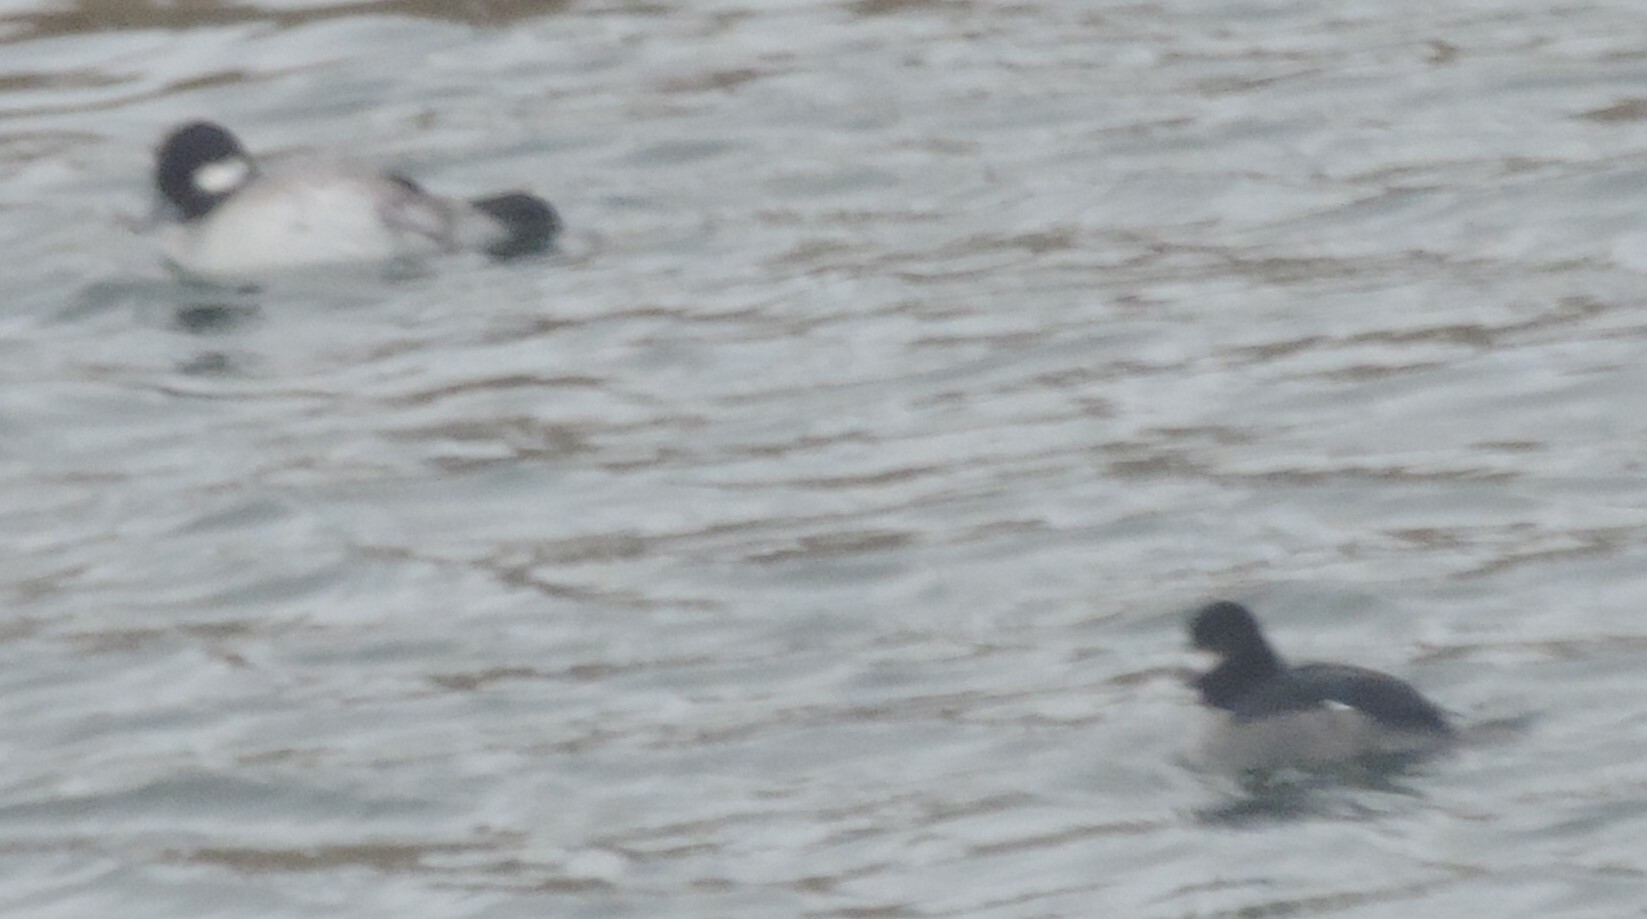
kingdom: Animalia
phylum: Chordata
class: Aves
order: Anseriformes
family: Anatidae
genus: Bucephala
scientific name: Bucephala albeola
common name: Bufflehead
